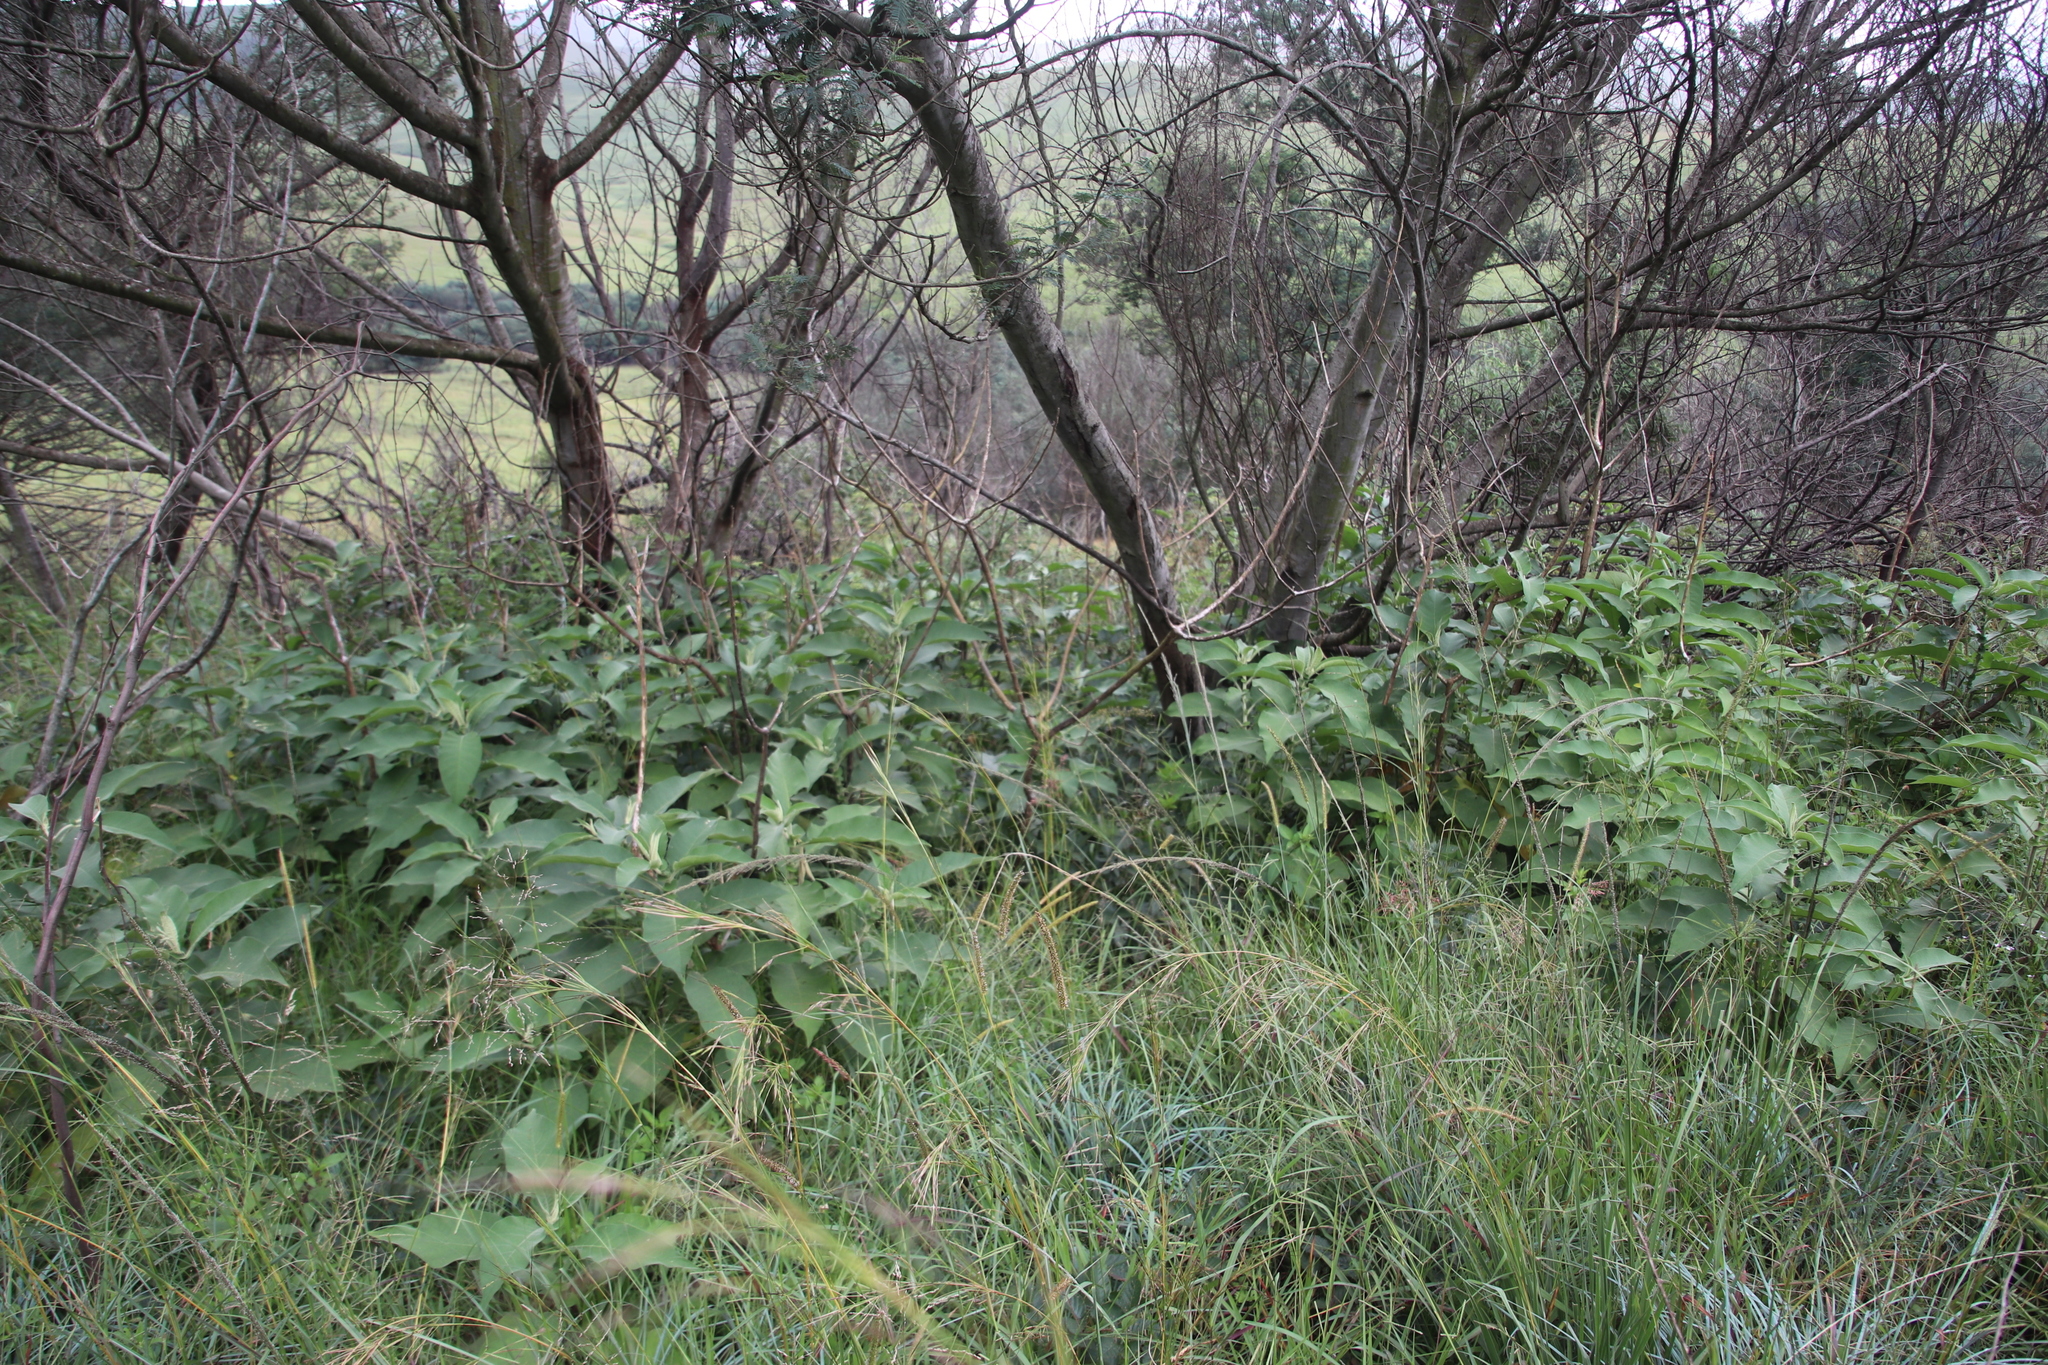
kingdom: Plantae
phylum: Tracheophyta
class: Magnoliopsida
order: Solanales
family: Solanaceae
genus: Solanum
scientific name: Solanum mauritianum
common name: Earleaf nightshade
